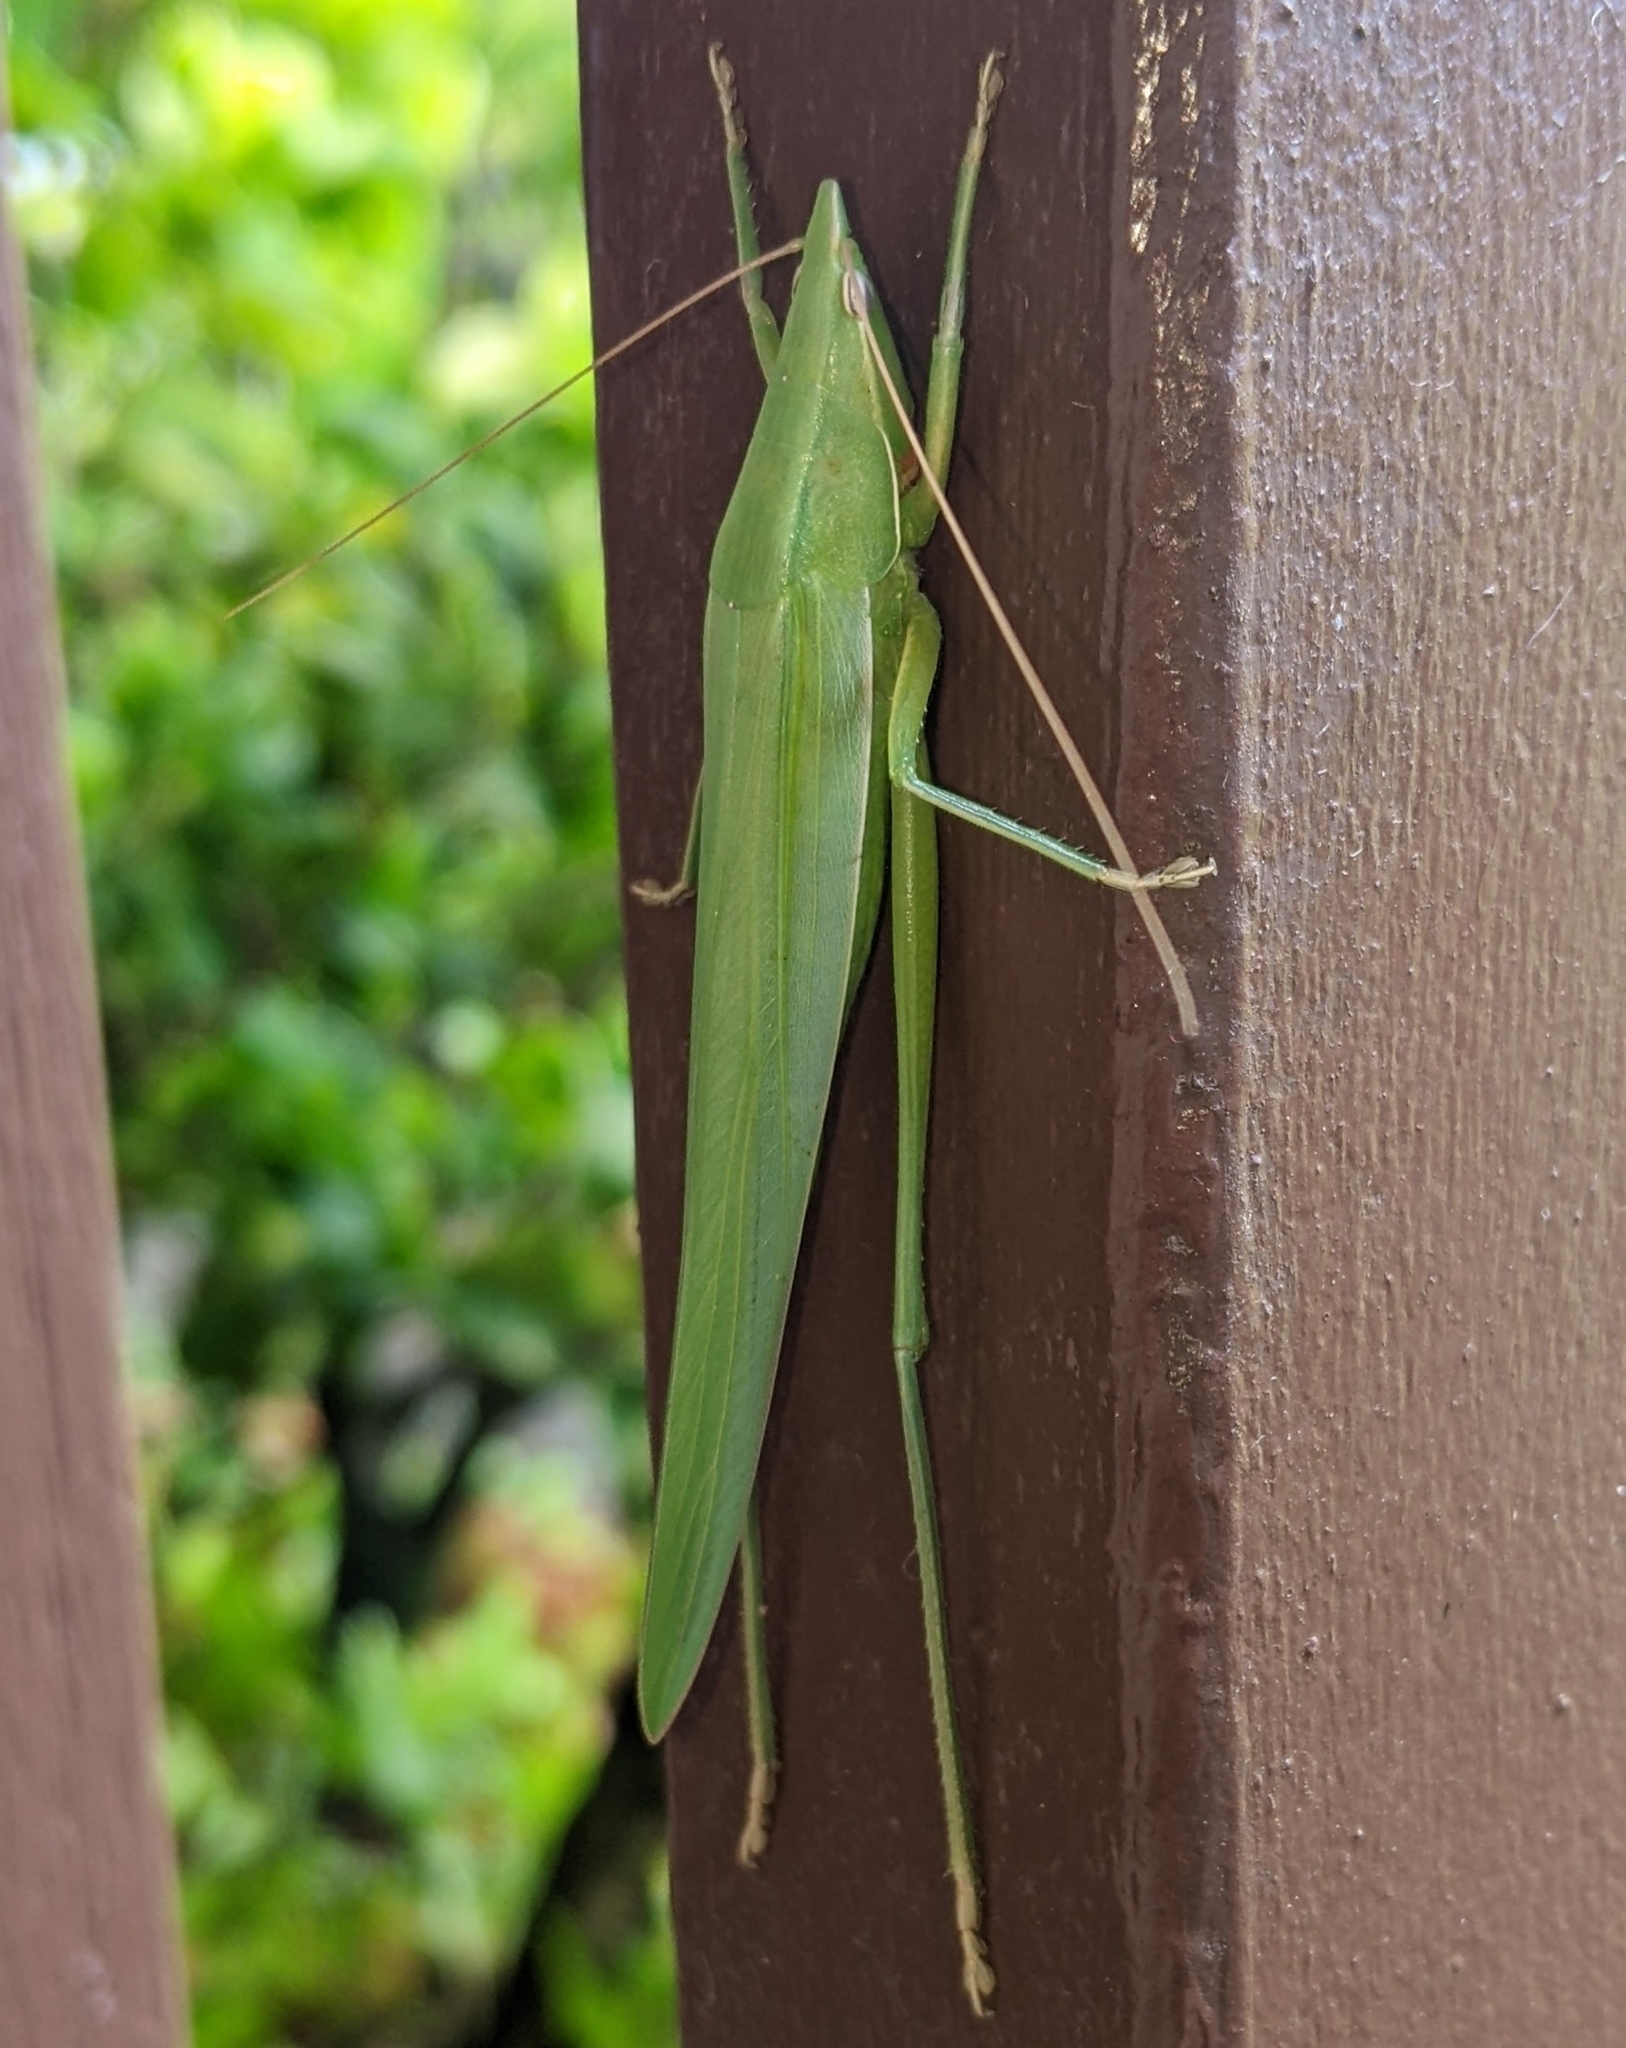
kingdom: Animalia
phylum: Arthropoda
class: Insecta
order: Orthoptera
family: Tettigoniidae
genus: Euconocephalus
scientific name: Euconocephalus nasutus
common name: Grasshopper
